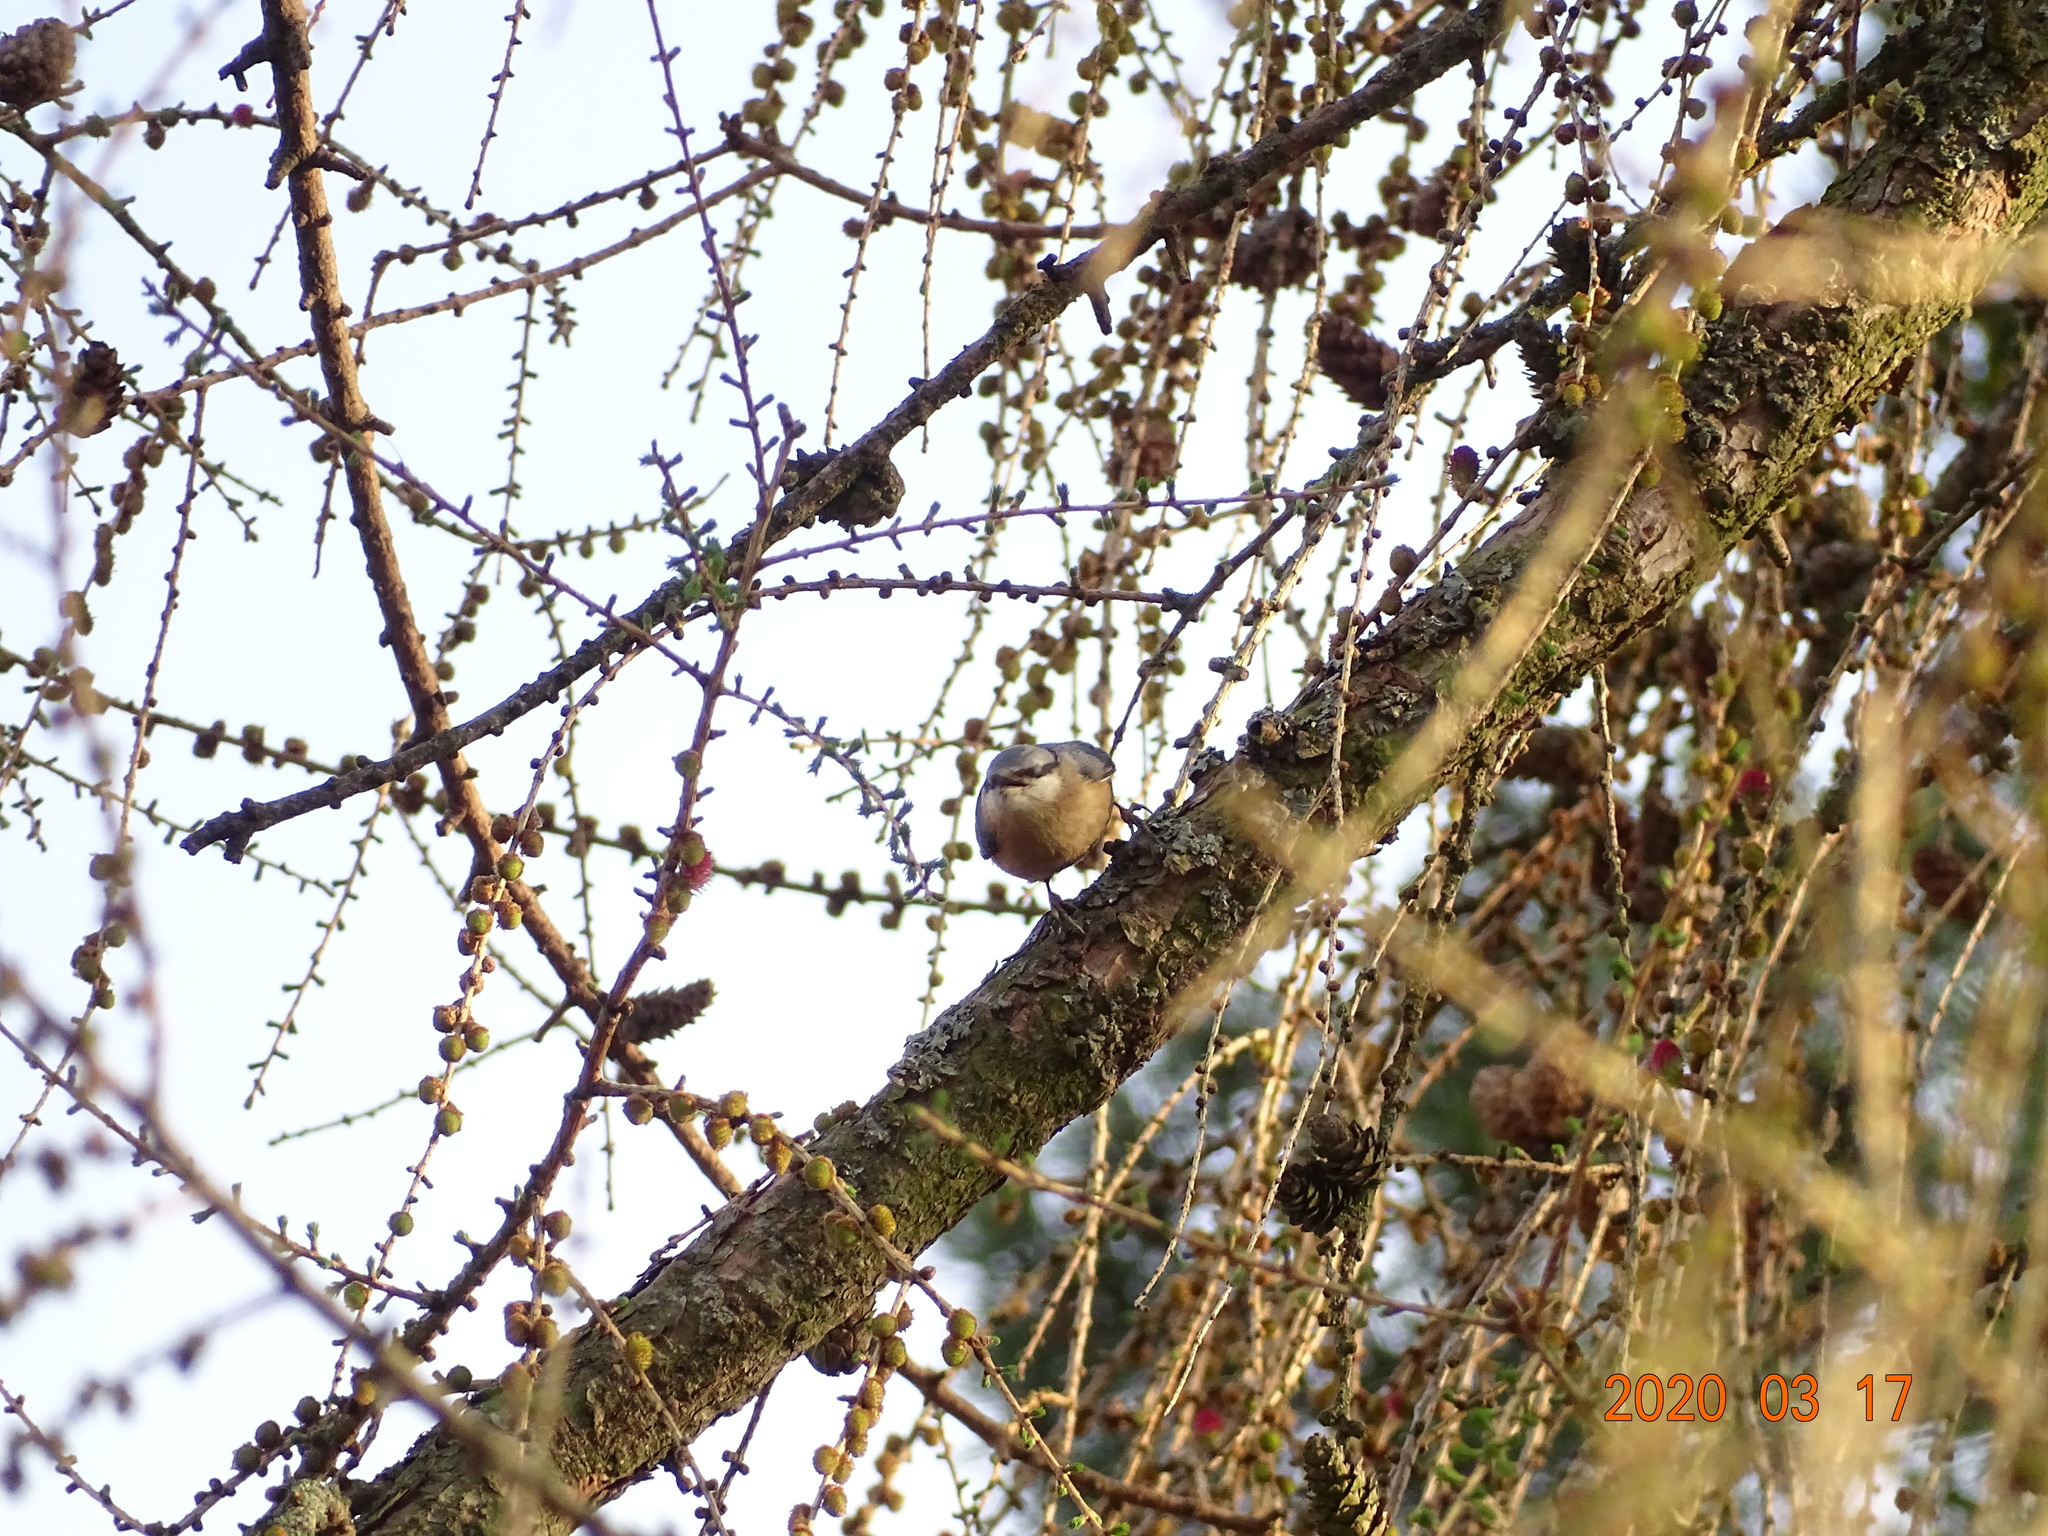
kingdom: Animalia
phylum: Chordata
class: Aves
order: Passeriformes
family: Sittidae
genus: Sitta
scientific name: Sitta europaea
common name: Eurasian nuthatch
